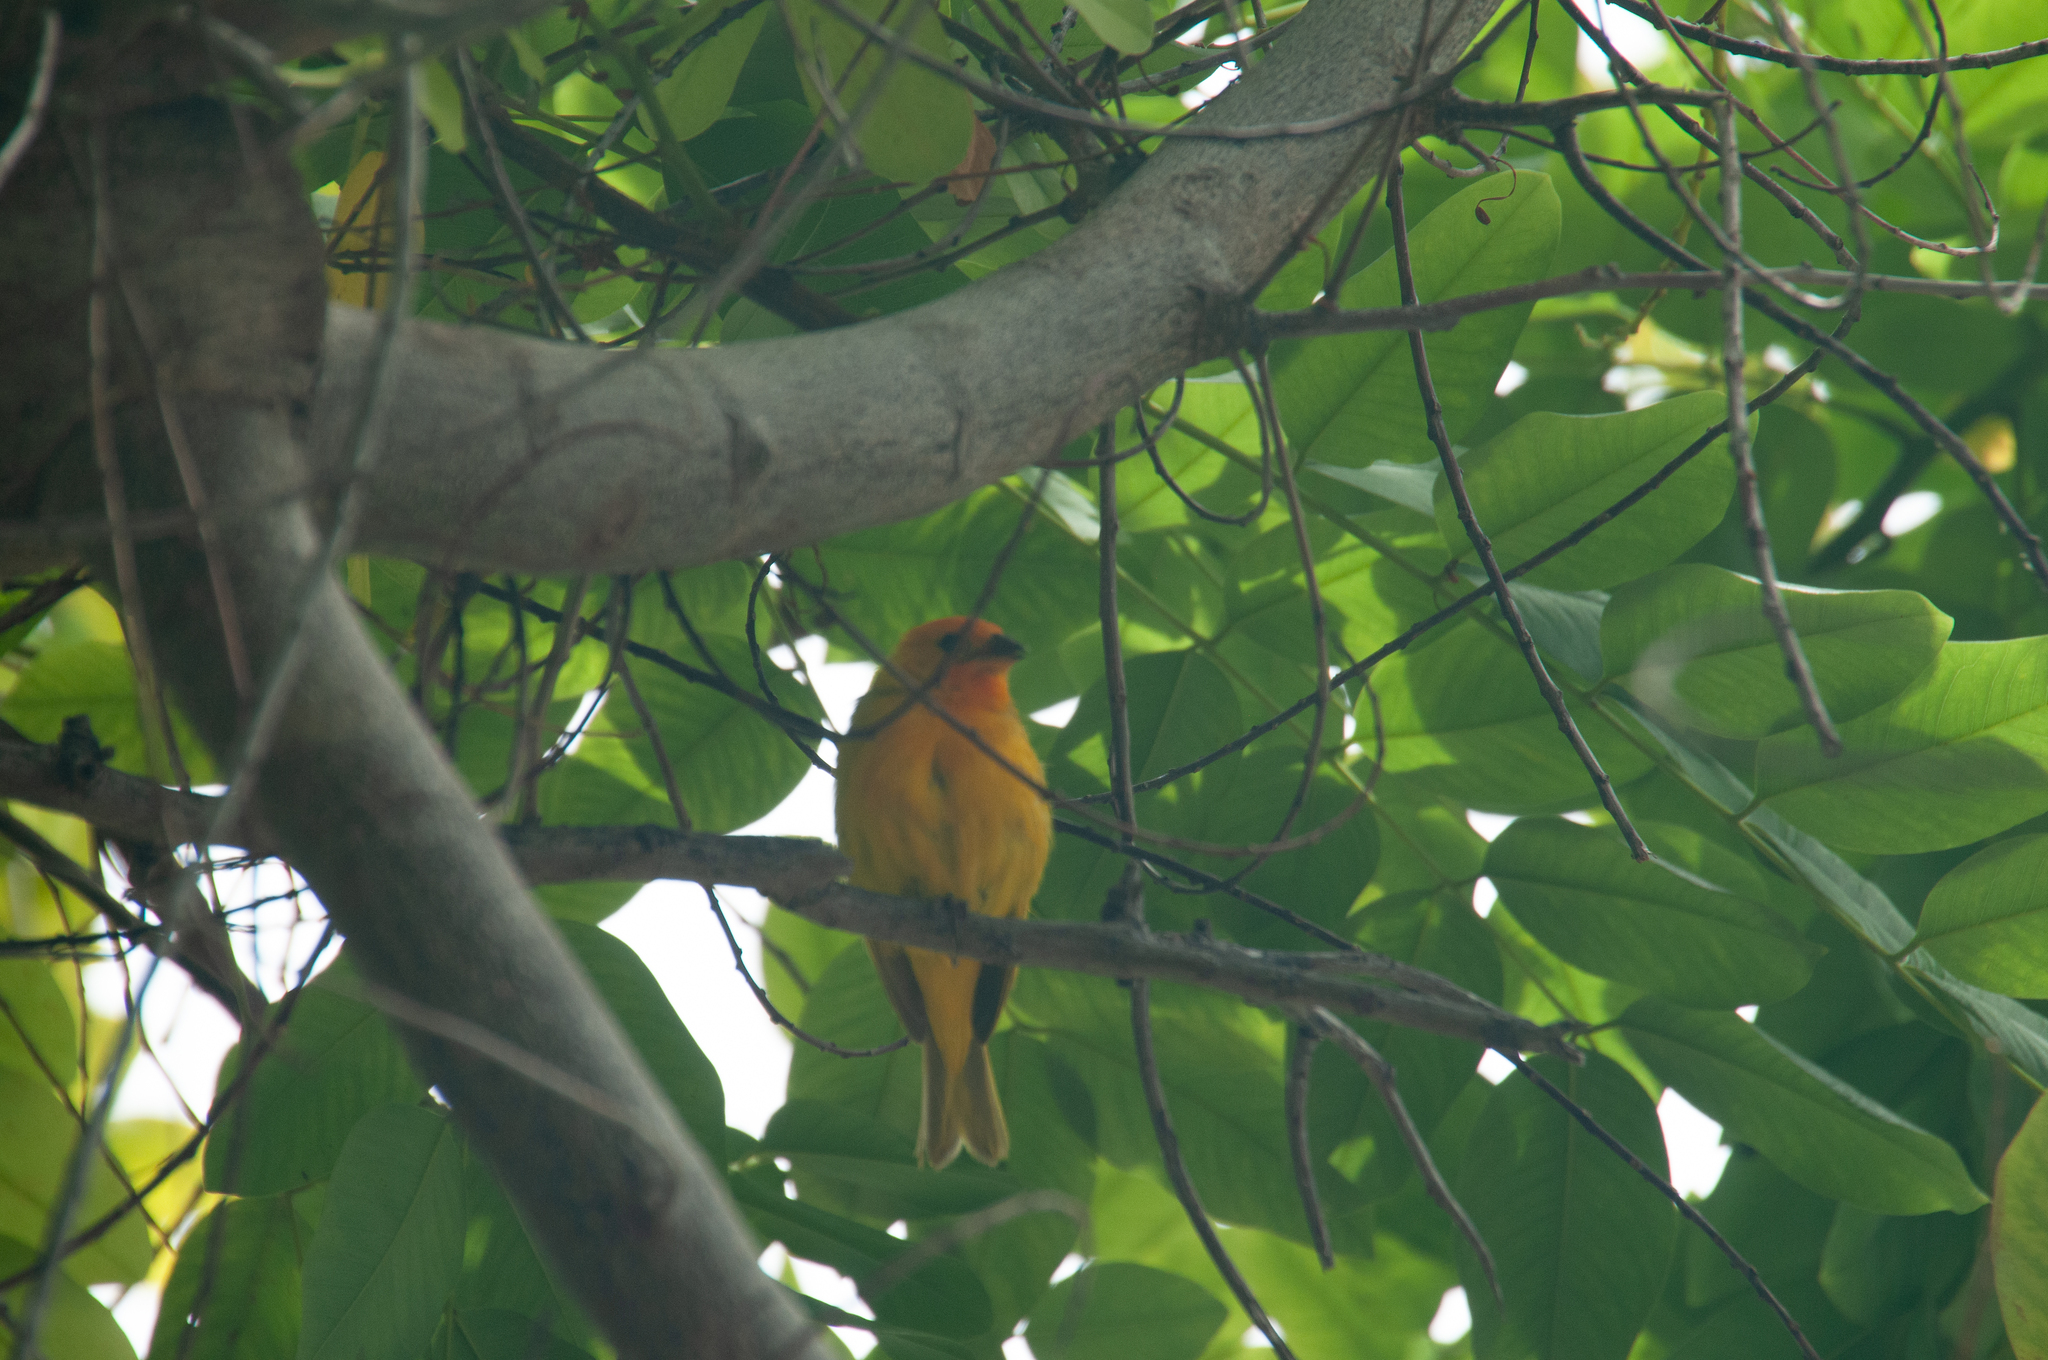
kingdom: Animalia
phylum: Chordata
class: Aves
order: Passeriformes
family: Thraupidae
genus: Sicalis
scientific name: Sicalis flaveola
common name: Saffron finch
